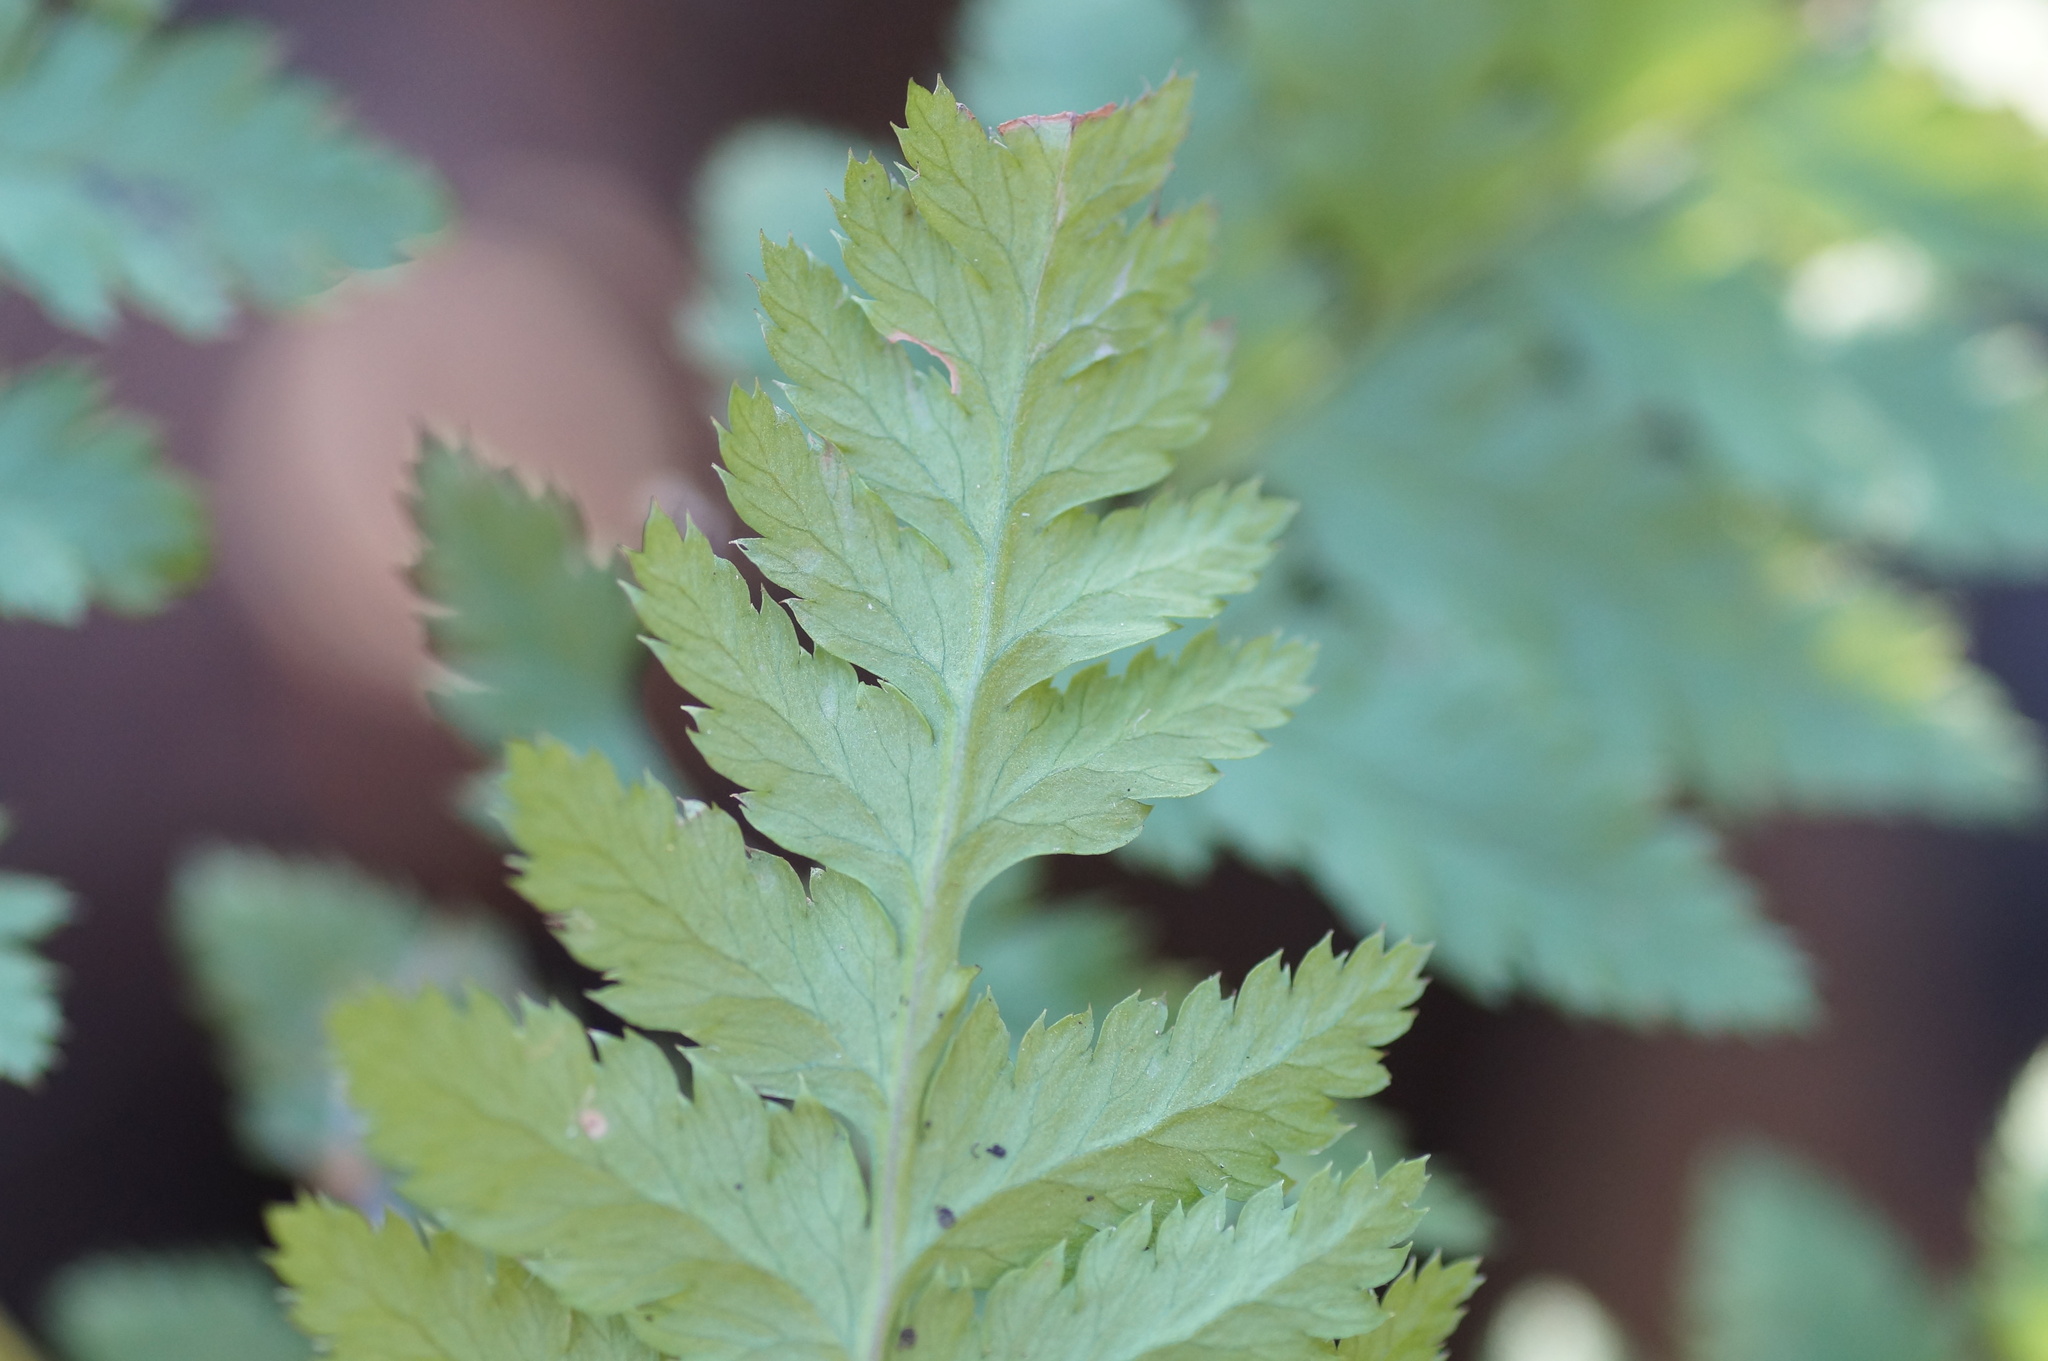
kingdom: Plantae
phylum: Tracheophyta
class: Polypodiopsida
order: Polypodiales
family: Dryopteridaceae
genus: Dryopteris
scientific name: Dryopteris carthusiana
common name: Narrow buckler-fern
